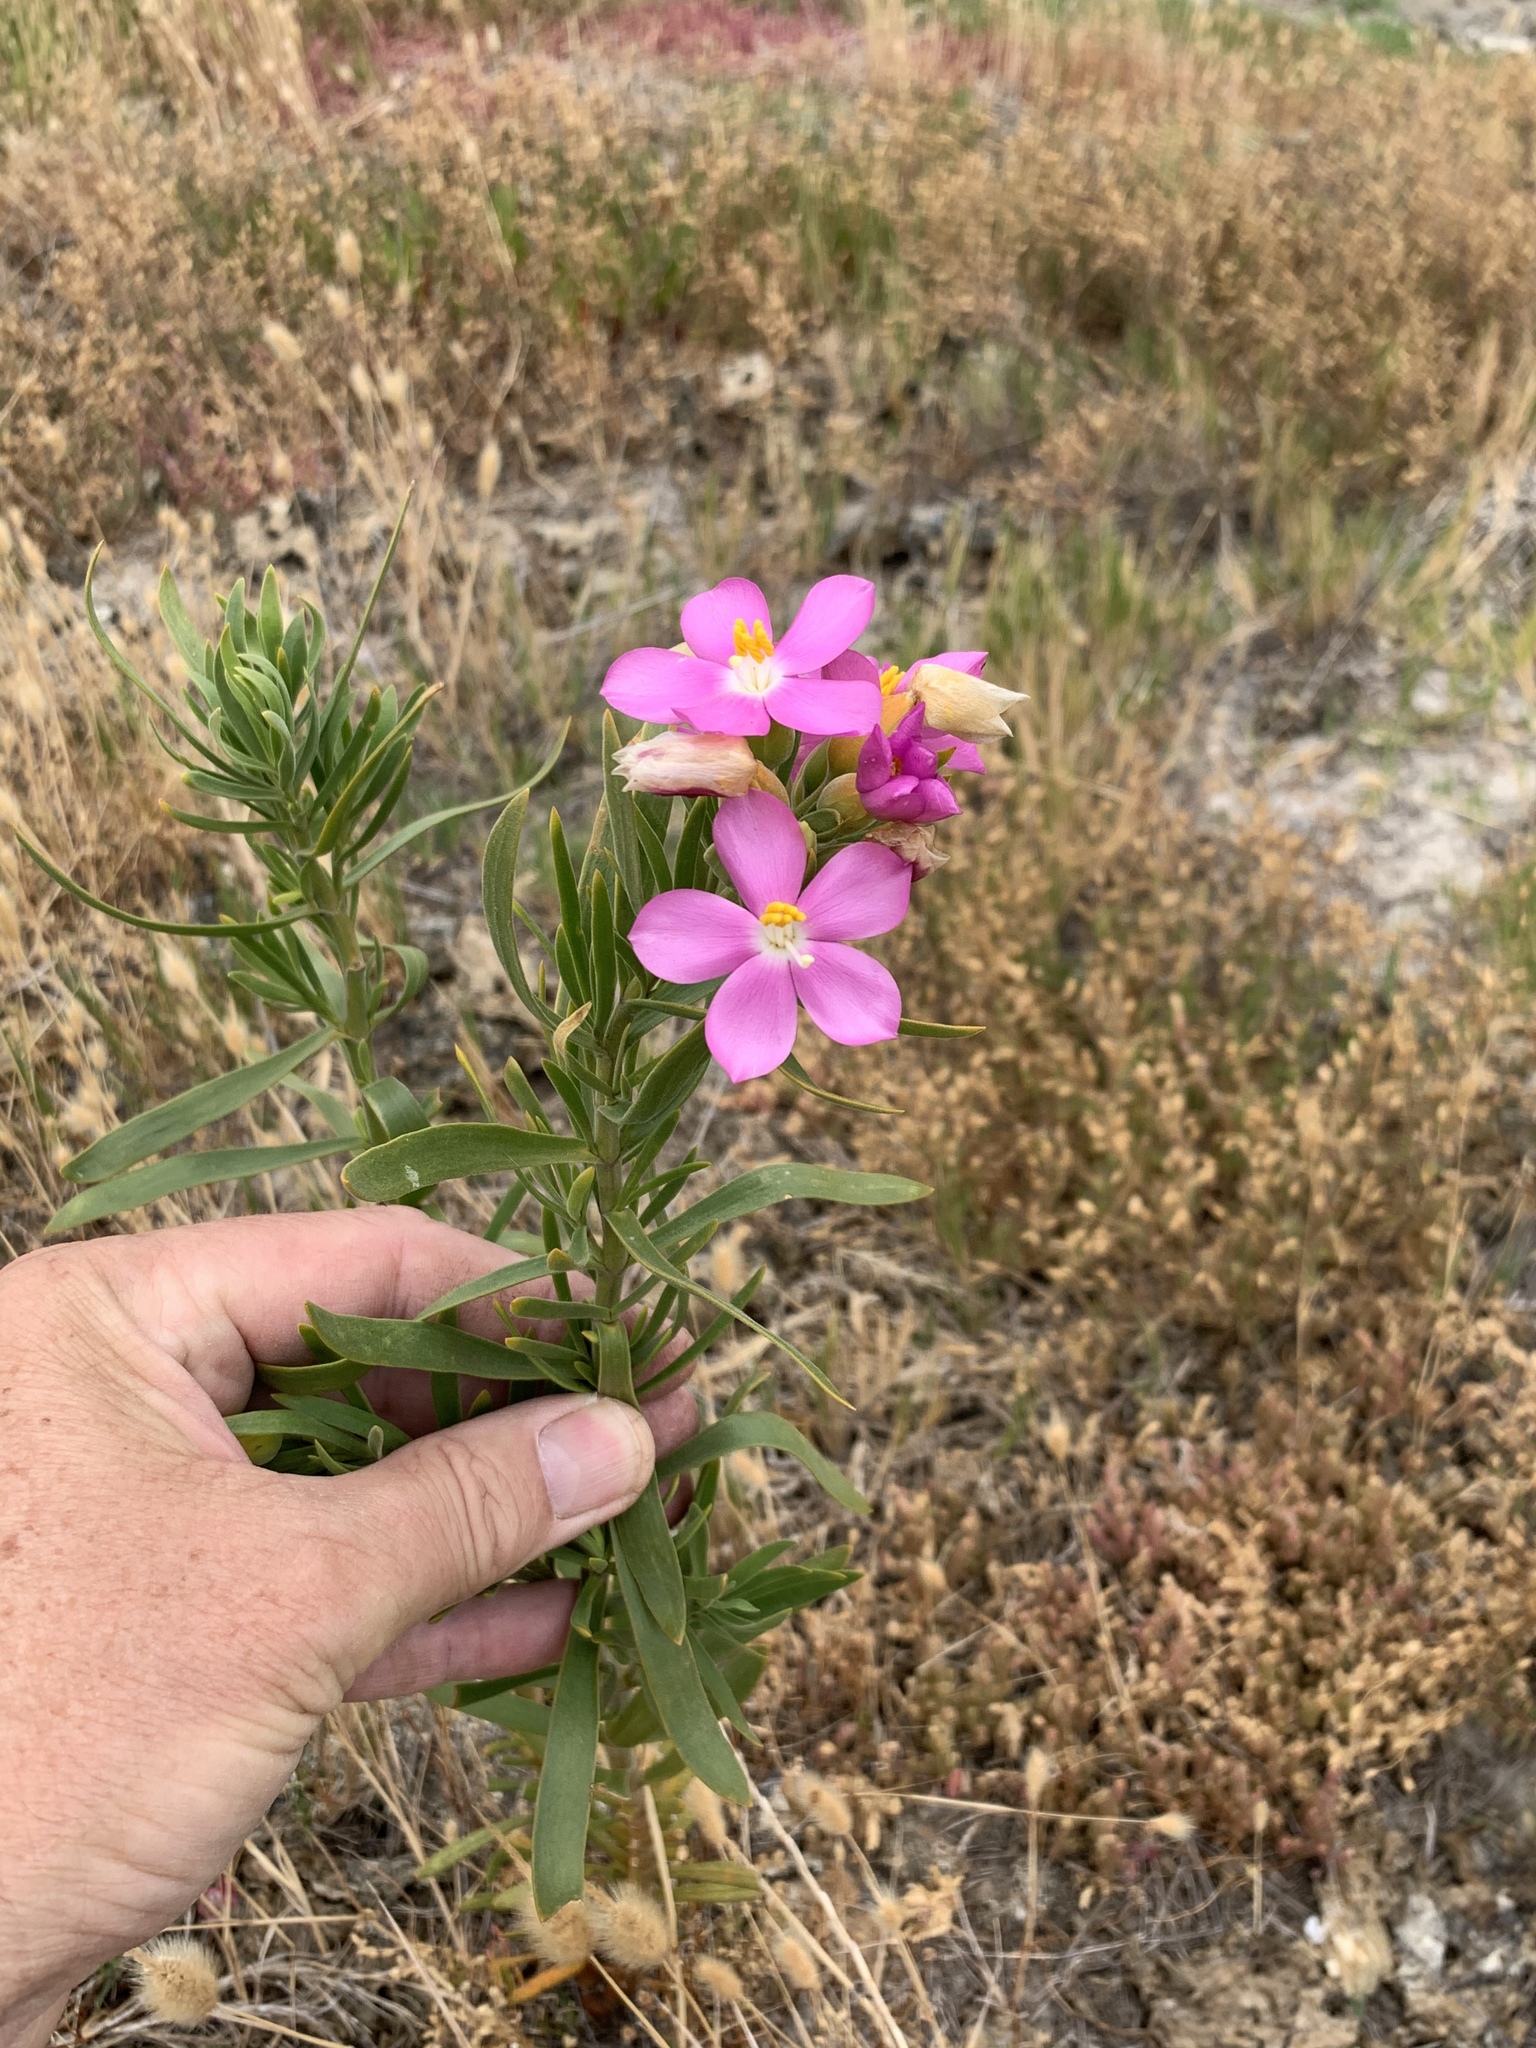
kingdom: Plantae
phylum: Tracheophyta
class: Magnoliopsida
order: Gentianales
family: Gentianaceae
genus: Orphium
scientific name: Orphium frutescens
